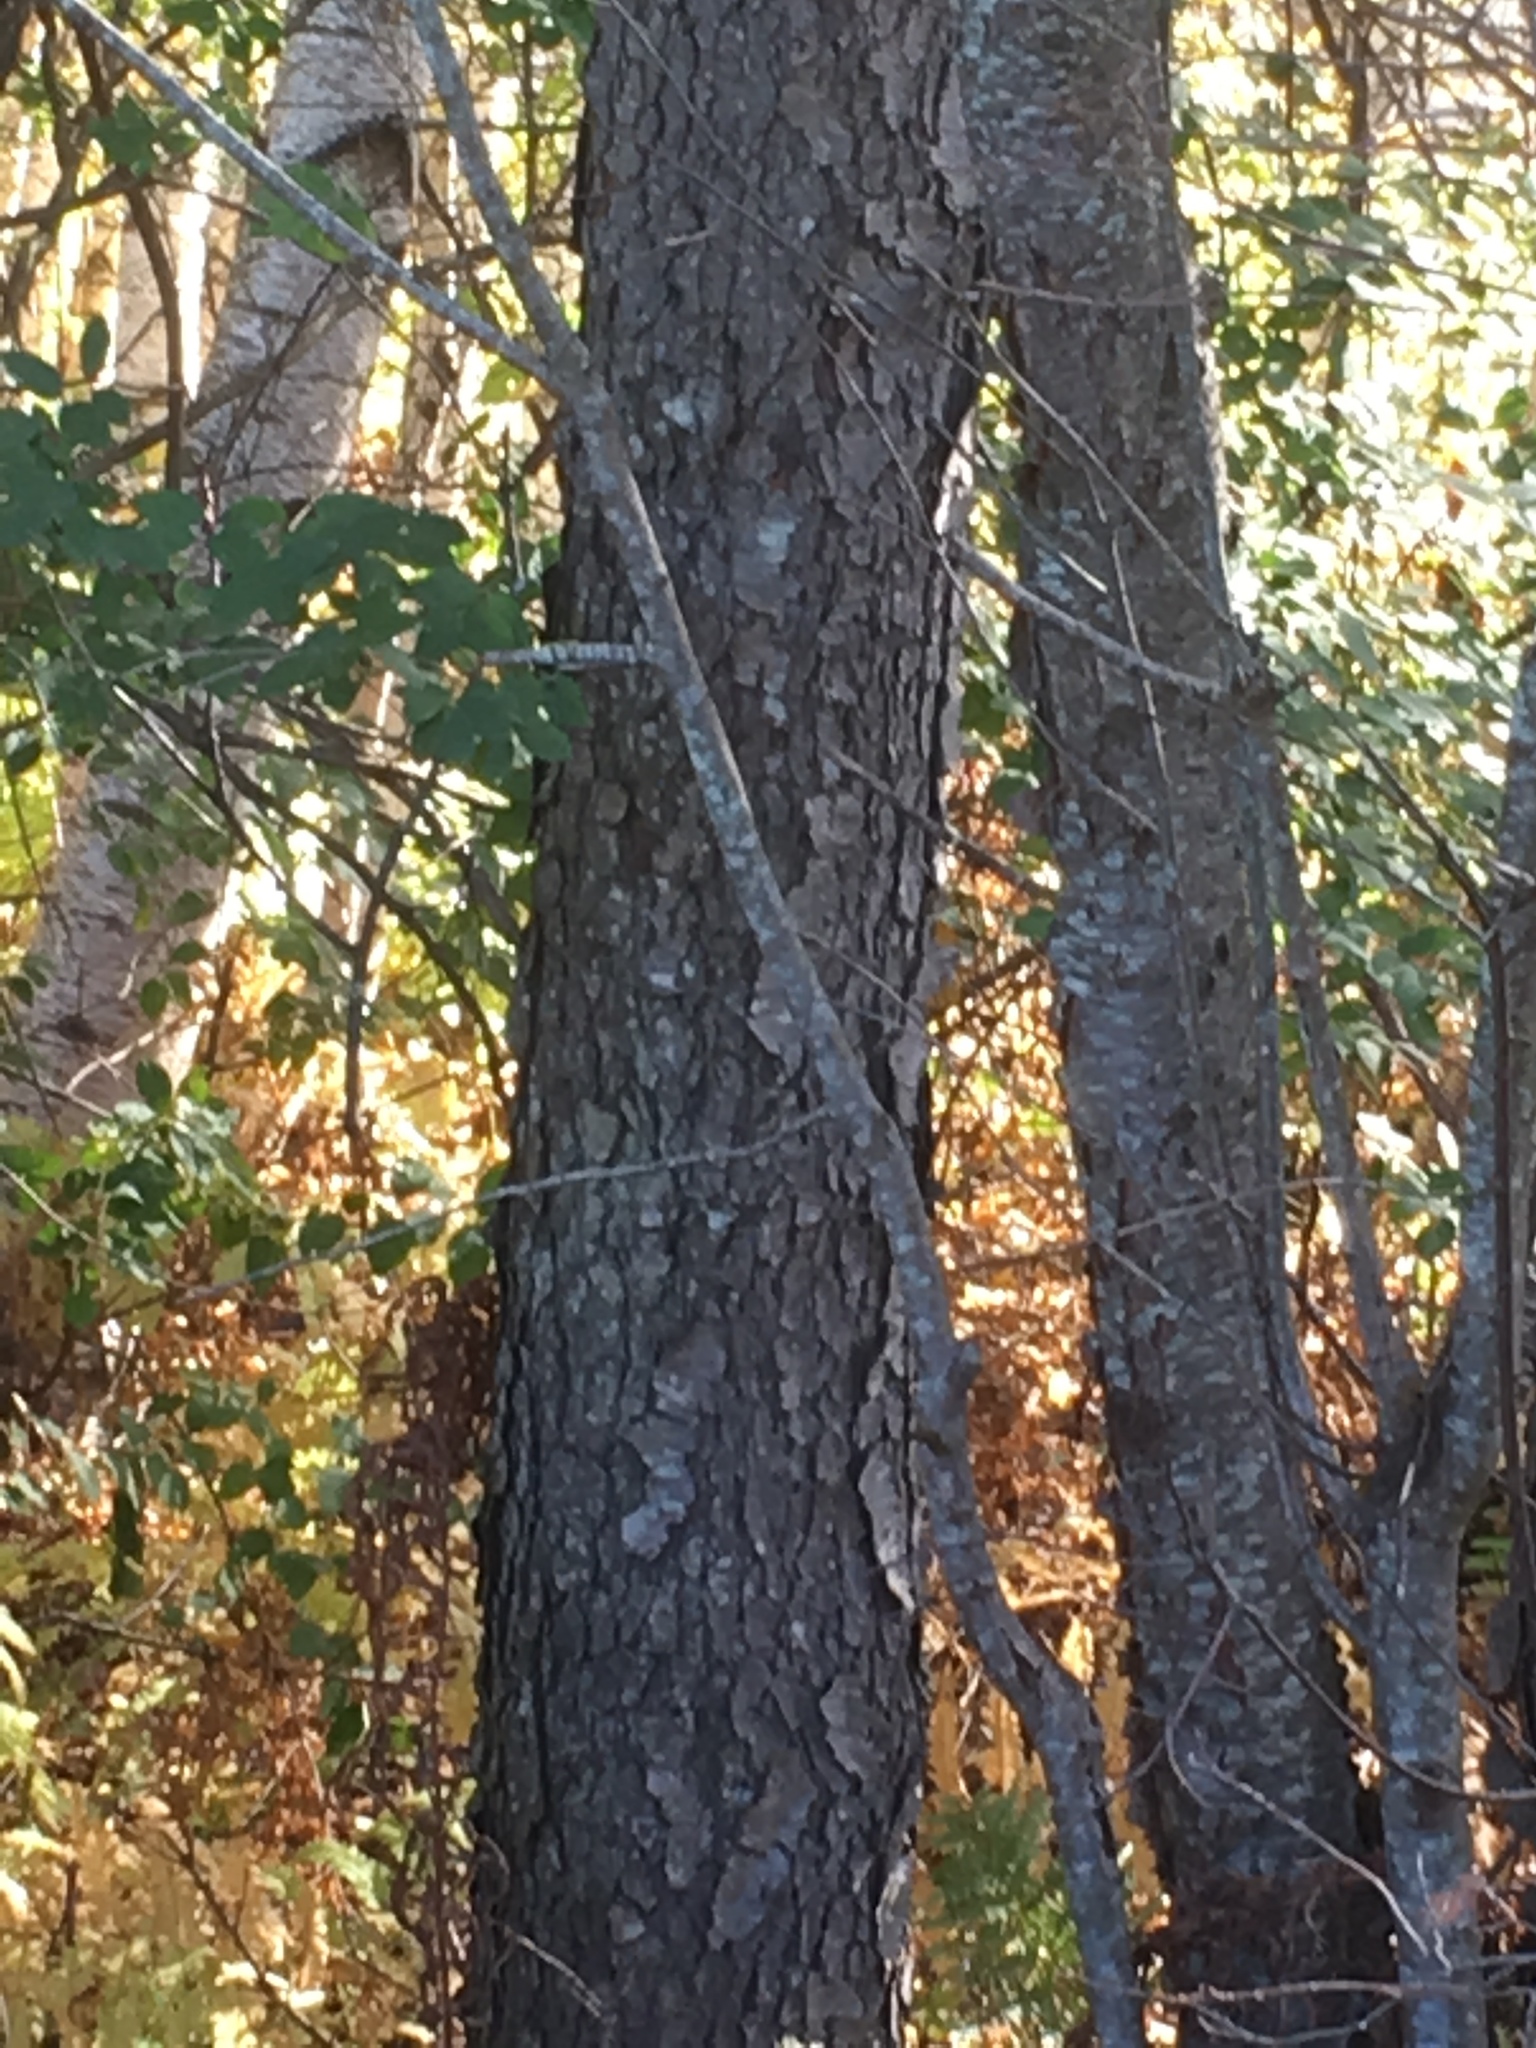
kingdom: Plantae
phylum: Tracheophyta
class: Magnoliopsida
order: Rosales
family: Rosaceae
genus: Prunus
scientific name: Prunus serotina
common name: Black cherry
